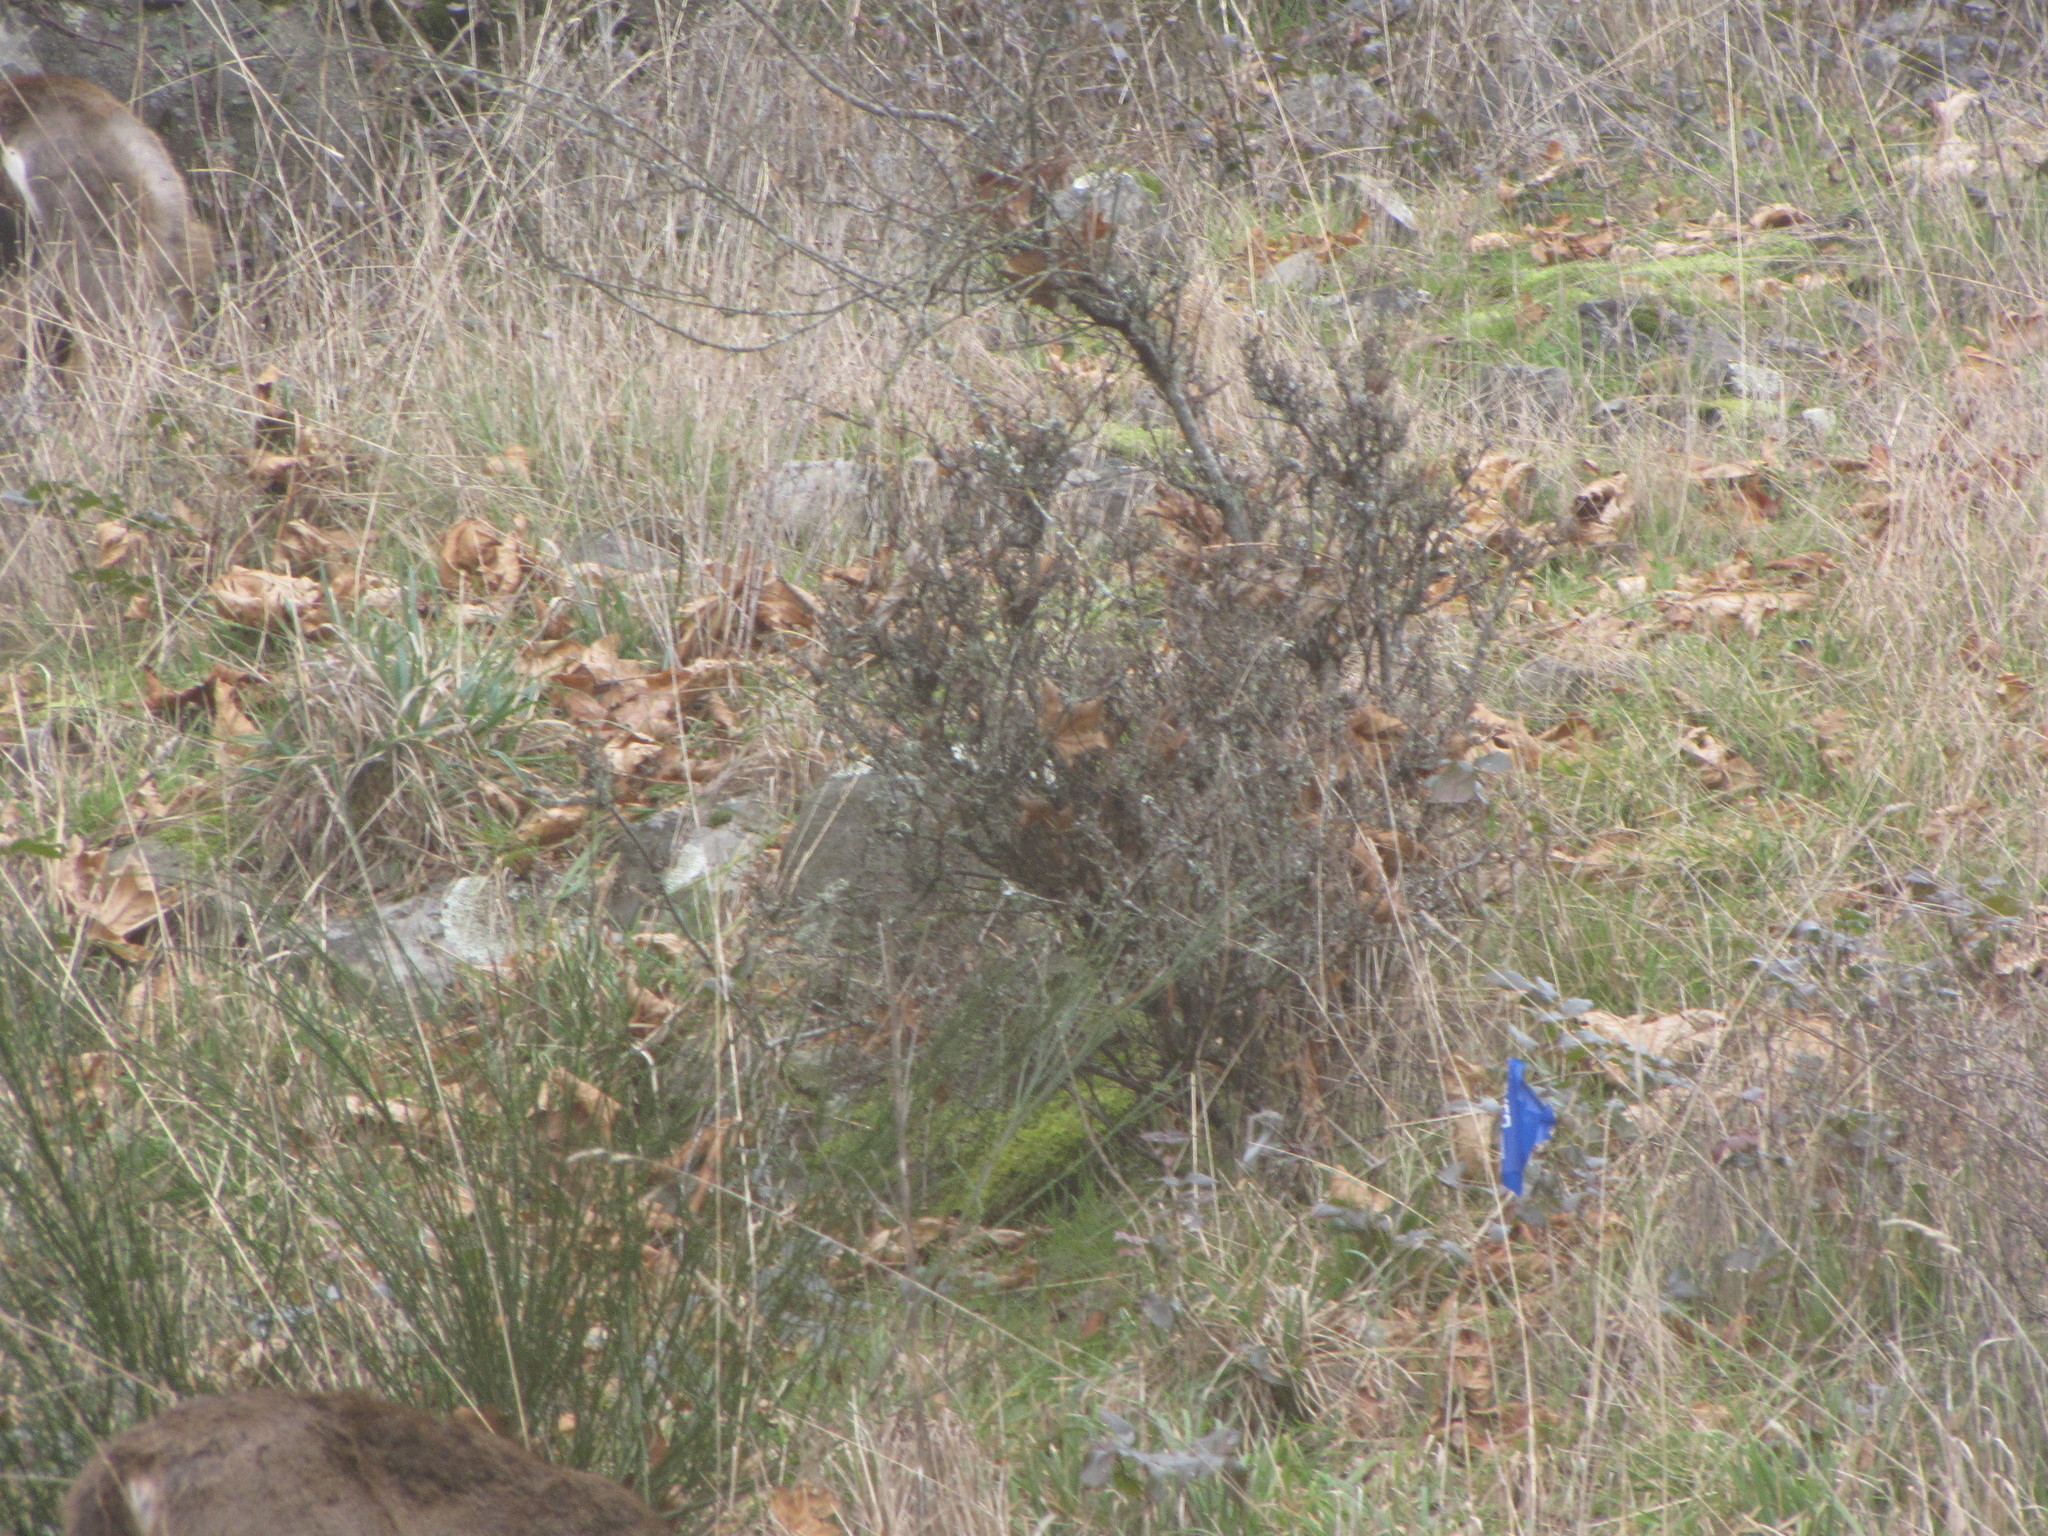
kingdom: Animalia
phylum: Chordata
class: Mammalia
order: Artiodactyla
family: Cervidae
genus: Odocoileus
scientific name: Odocoileus hemionus
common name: Mule deer
